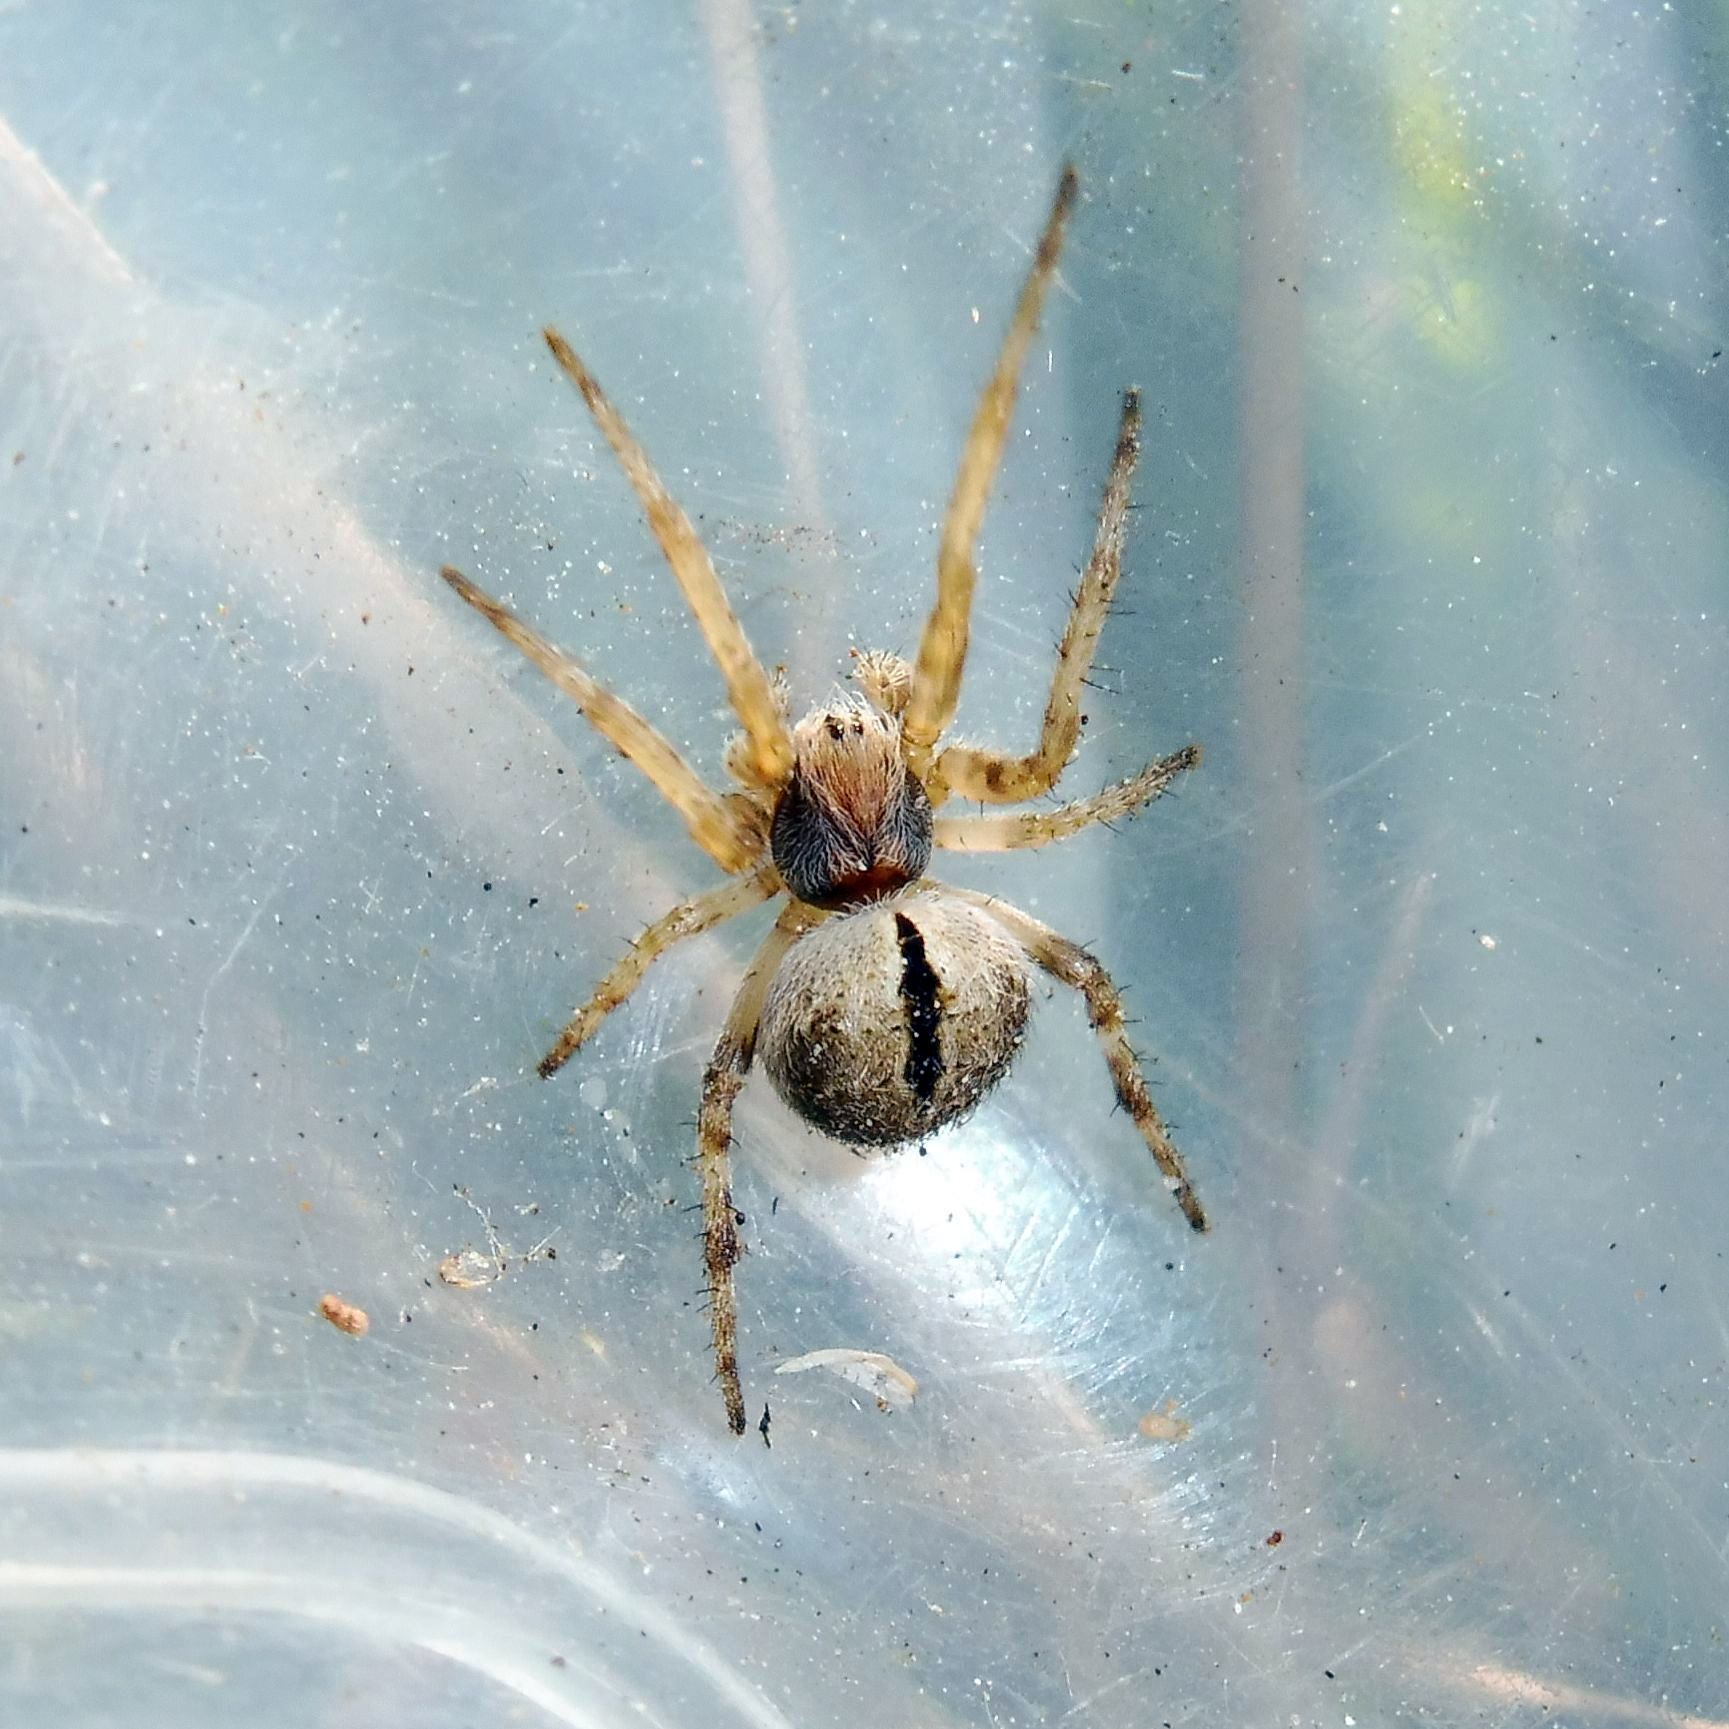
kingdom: Animalia
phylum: Arthropoda
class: Arachnida
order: Araneae
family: Araneidae
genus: Agalenatea
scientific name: Agalenatea redii
